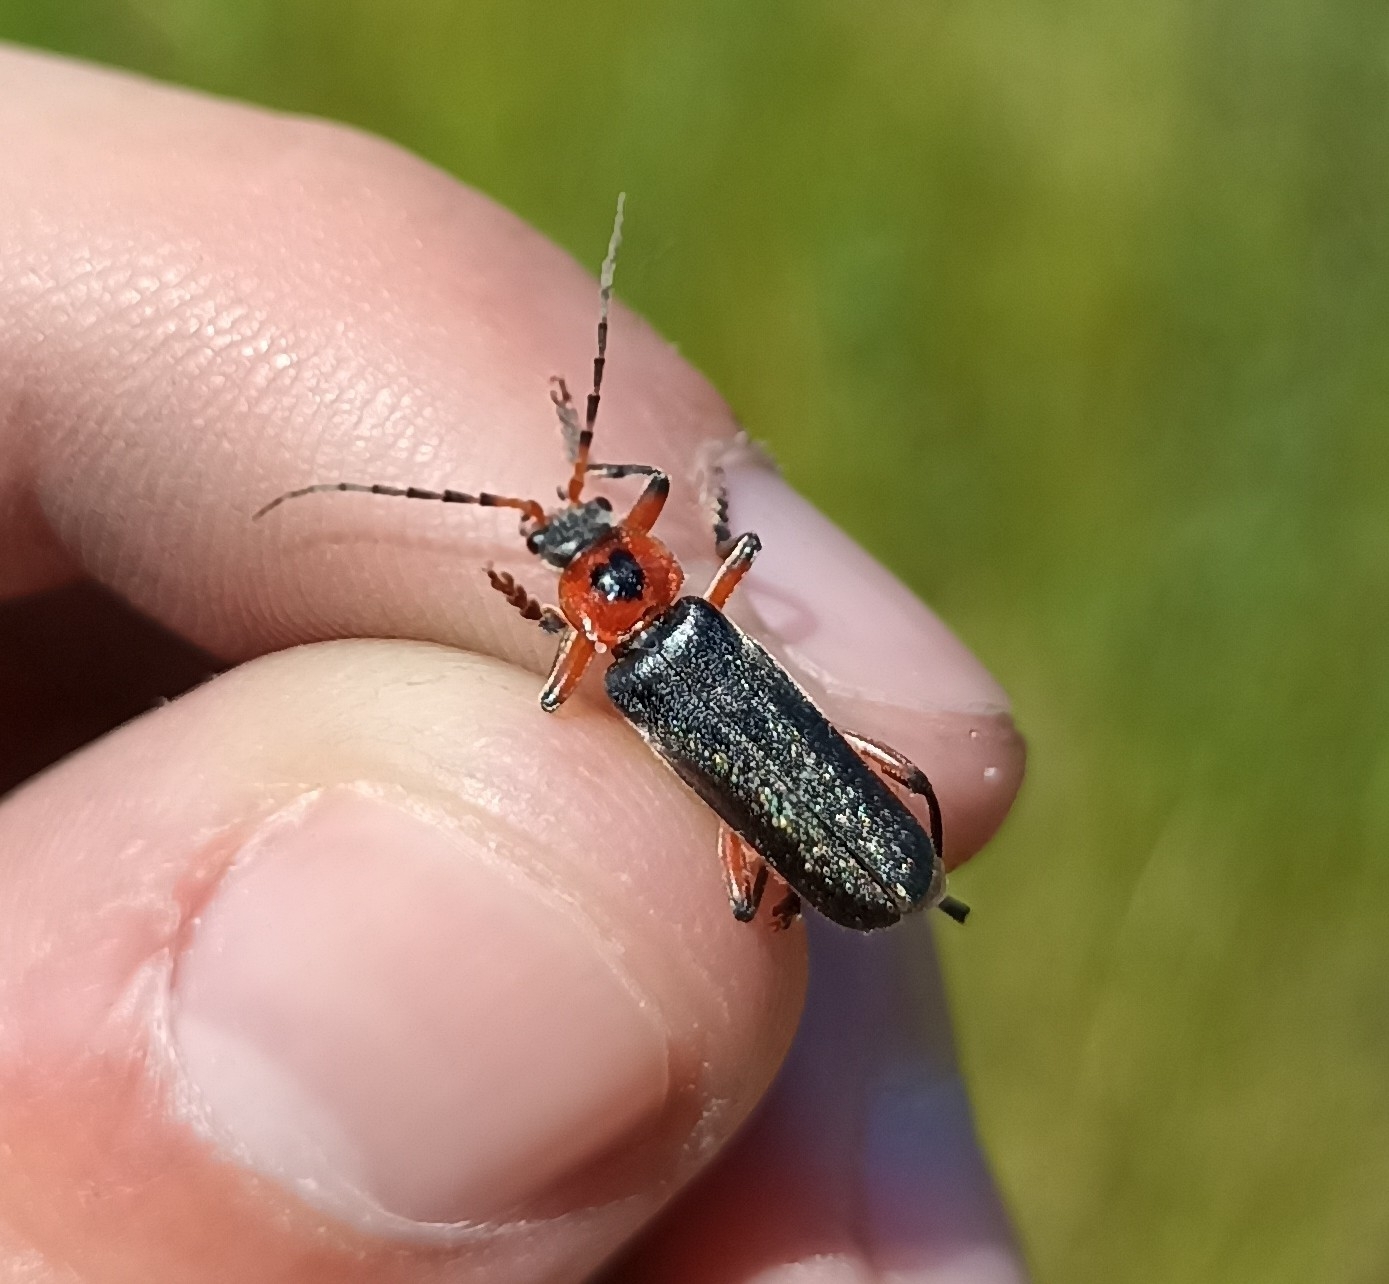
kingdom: Animalia
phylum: Arthropoda
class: Insecta
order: Coleoptera
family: Cantharidae
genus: Cantharis
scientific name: Cantharis rustica
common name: Soldier beetle
